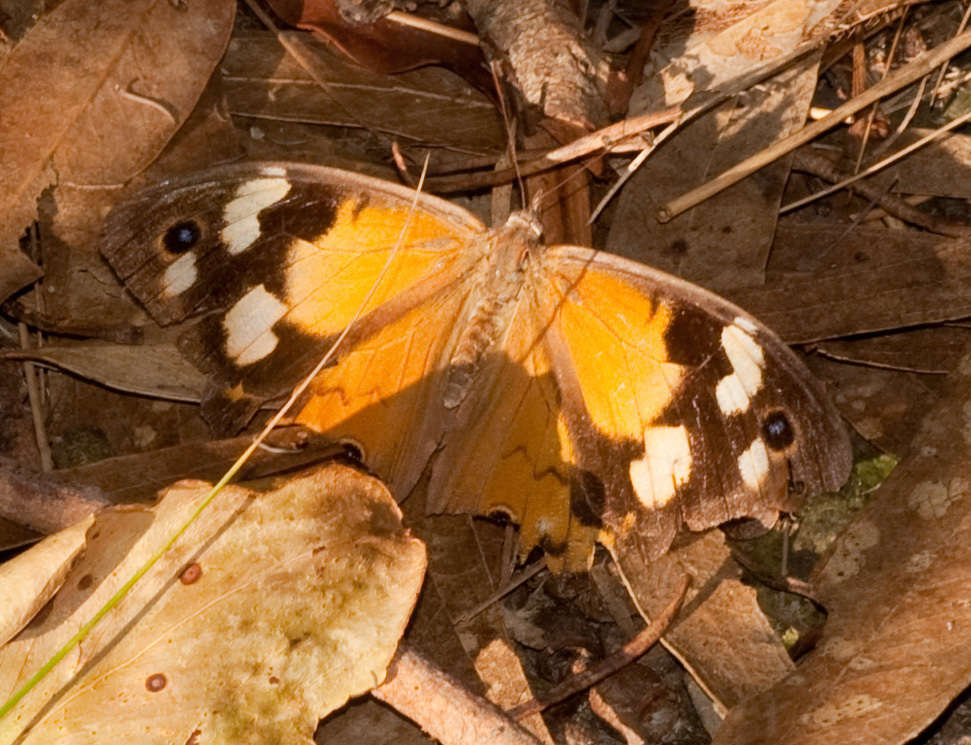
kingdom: Animalia
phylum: Arthropoda
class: Insecta
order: Lepidoptera
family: Nymphalidae
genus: Heteronympha
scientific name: Heteronympha merope
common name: Common brown
